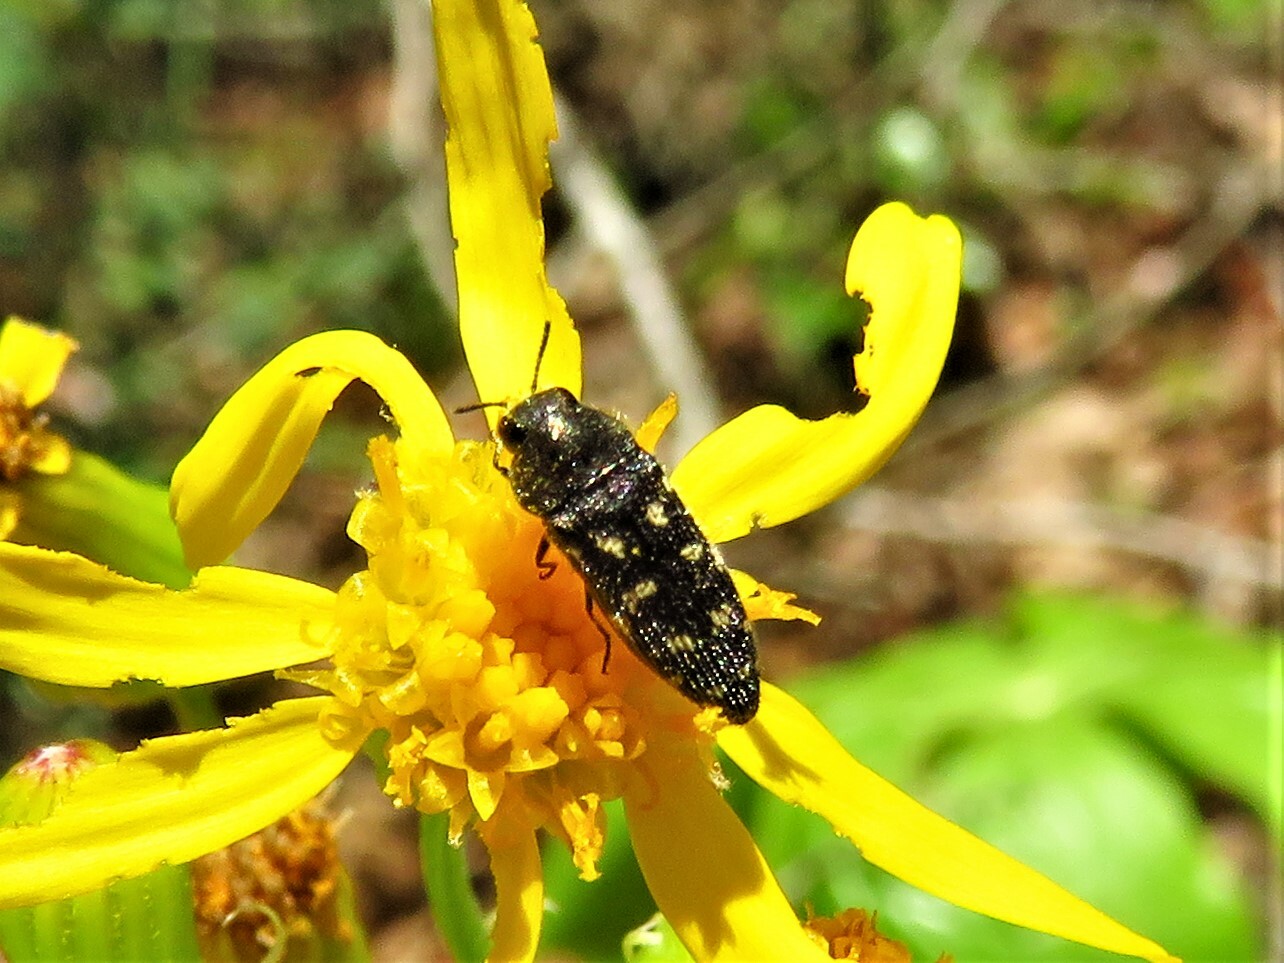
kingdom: Animalia
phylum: Arthropoda
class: Insecta
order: Coleoptera
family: Buprestidae
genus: Acmaeodera
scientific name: Acmaeodera tubulus
